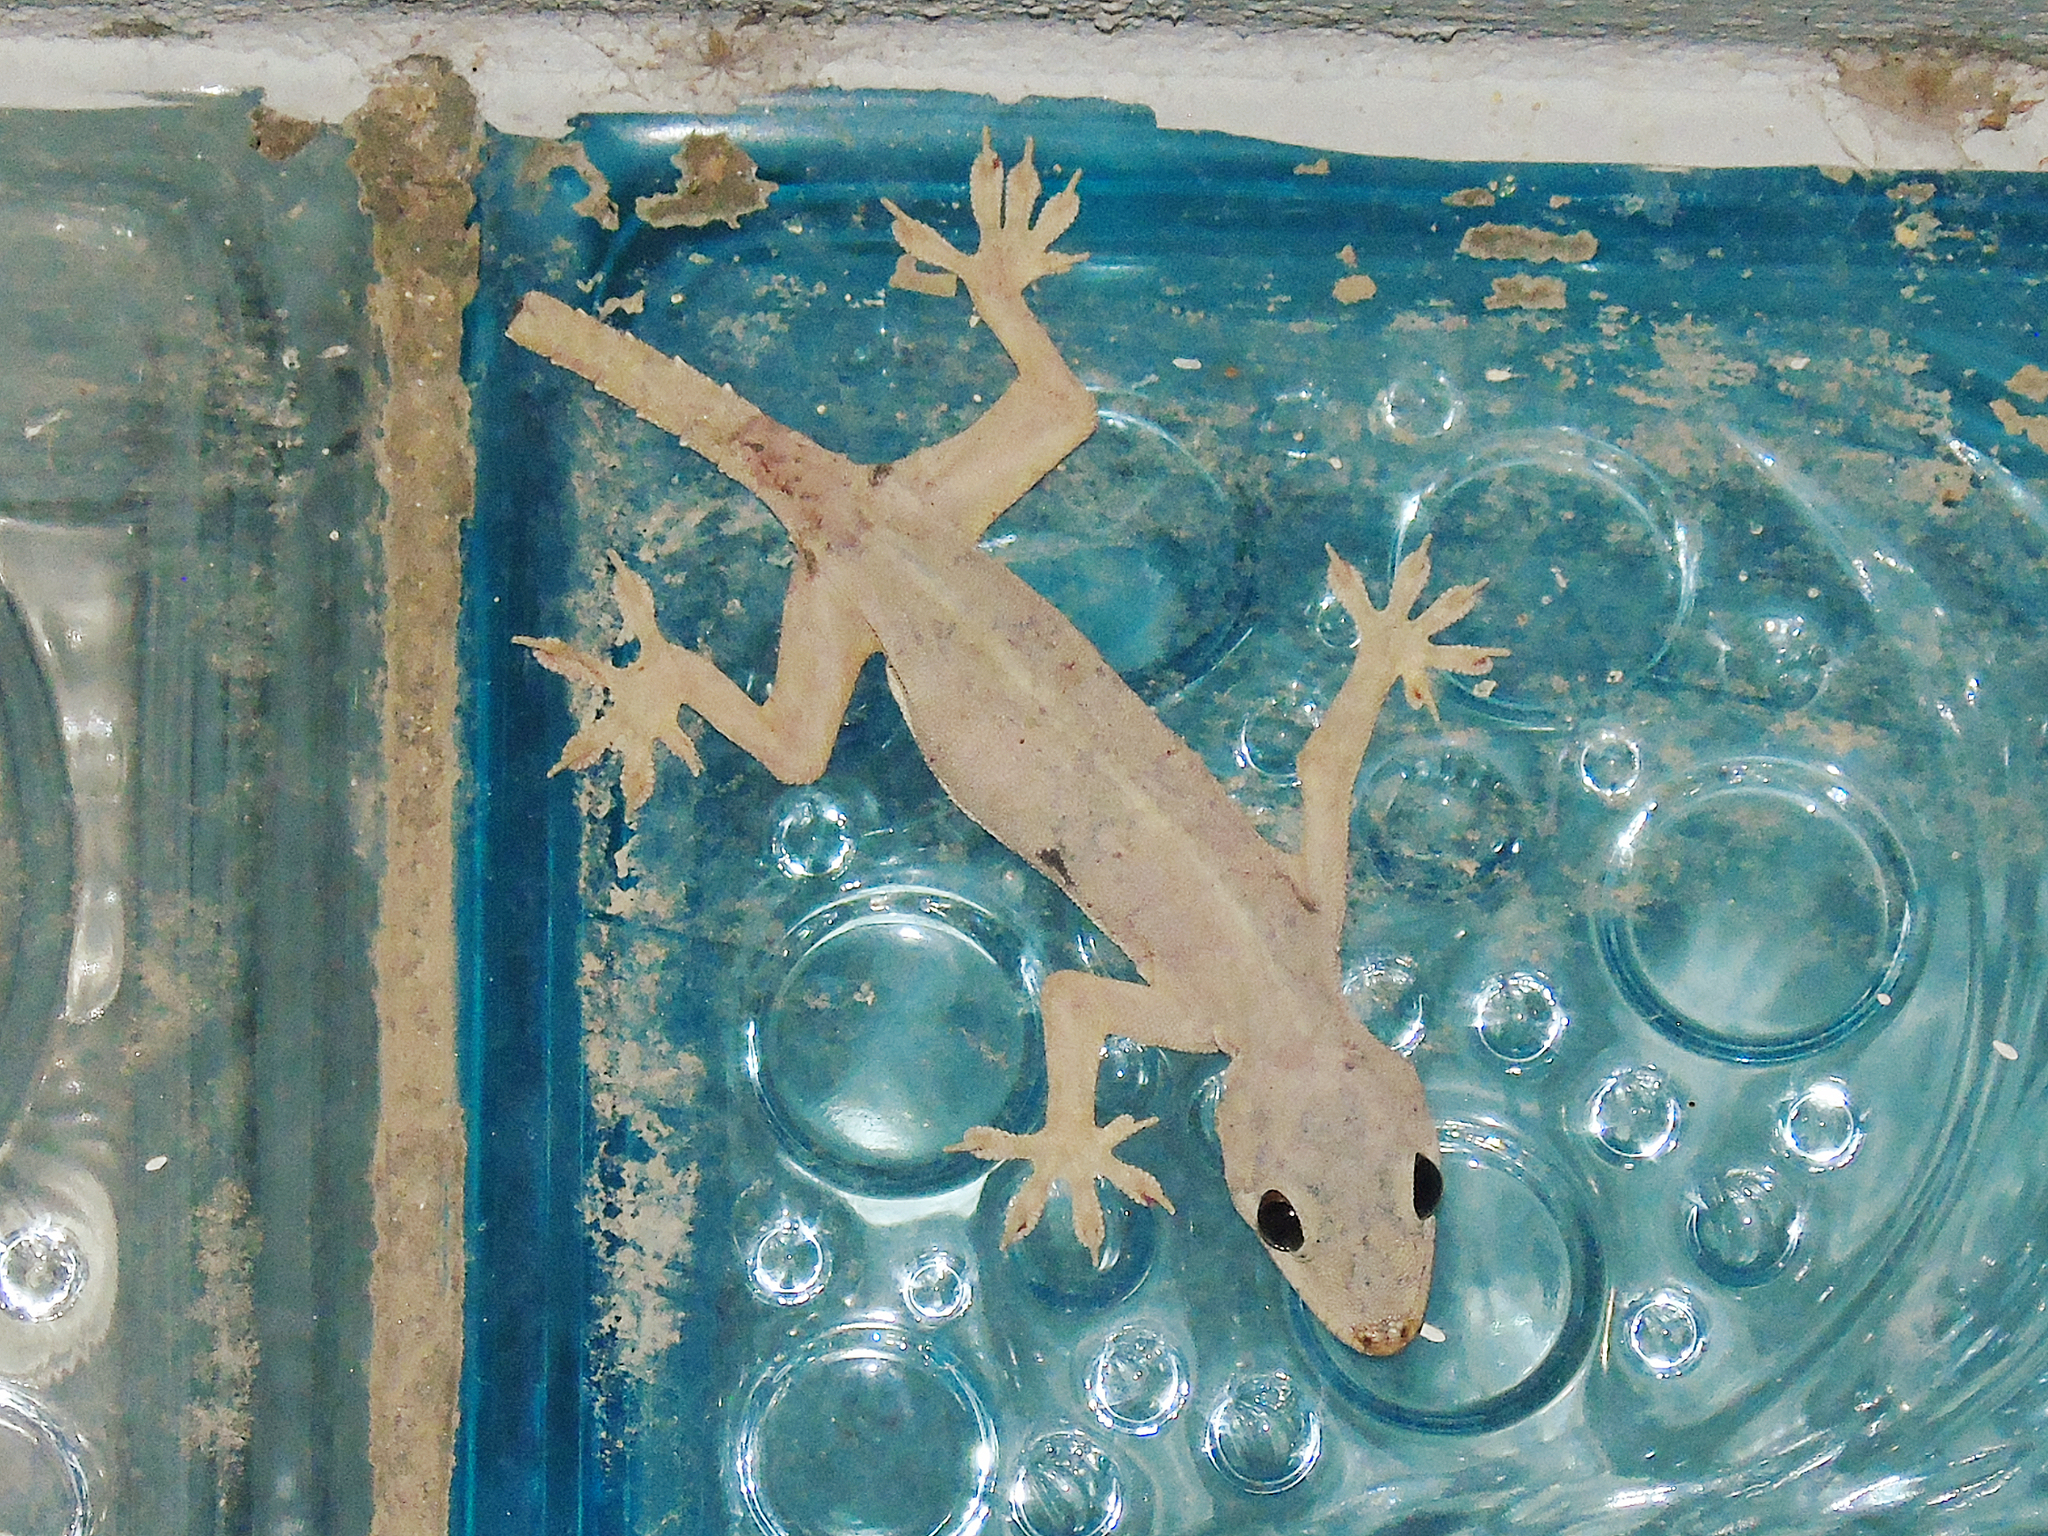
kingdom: Animalia
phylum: Chordata
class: Squamata
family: Gekkonidae
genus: Hemidactylus
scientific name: Hemidactylus flaviviridis
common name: Northern house gecko
